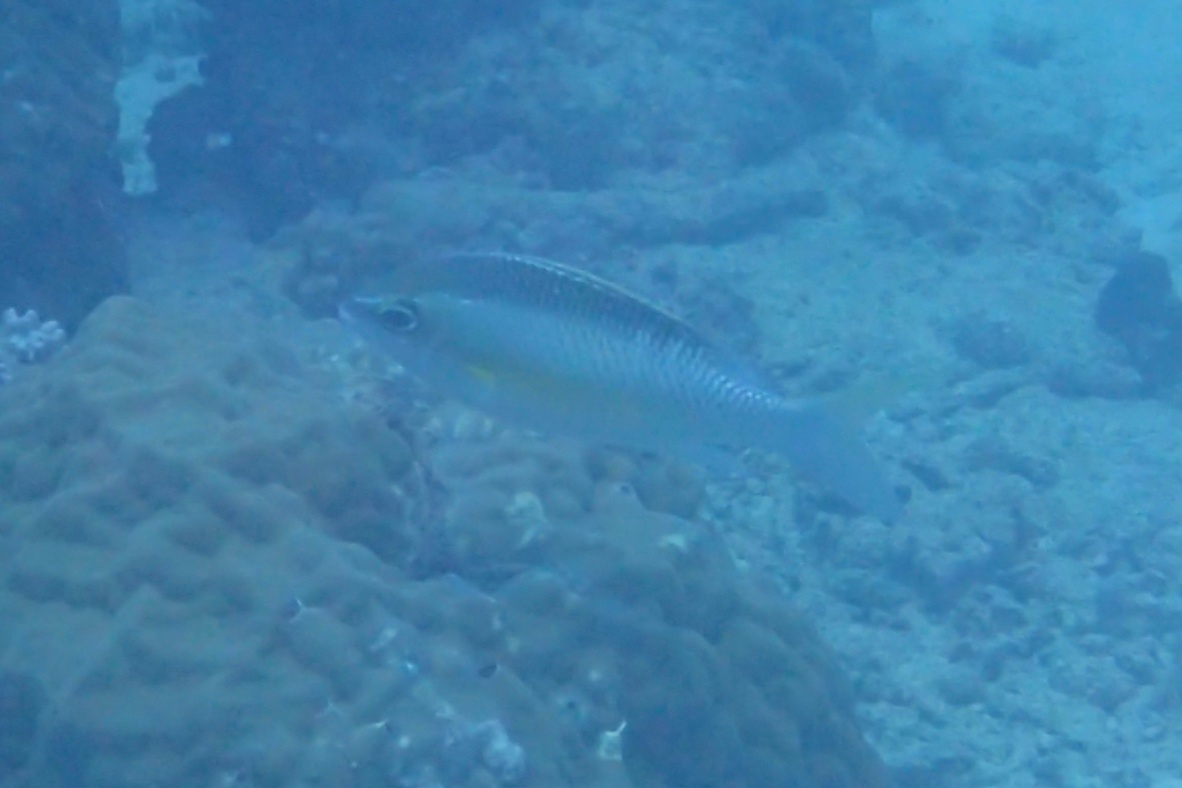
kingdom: Animalia
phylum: Chordata
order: Perciformes
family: Nemipteridae
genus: Scolopsis
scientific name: Scolopsis margaritifera
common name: Pearly monocle bream
